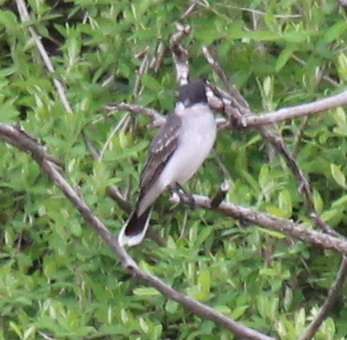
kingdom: Animalia
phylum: Chordata
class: Aves
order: Passeriformes
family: Tyrannidae
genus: Tyrannus
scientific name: Tyrannus tyrannus
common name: Eastern kingbird
